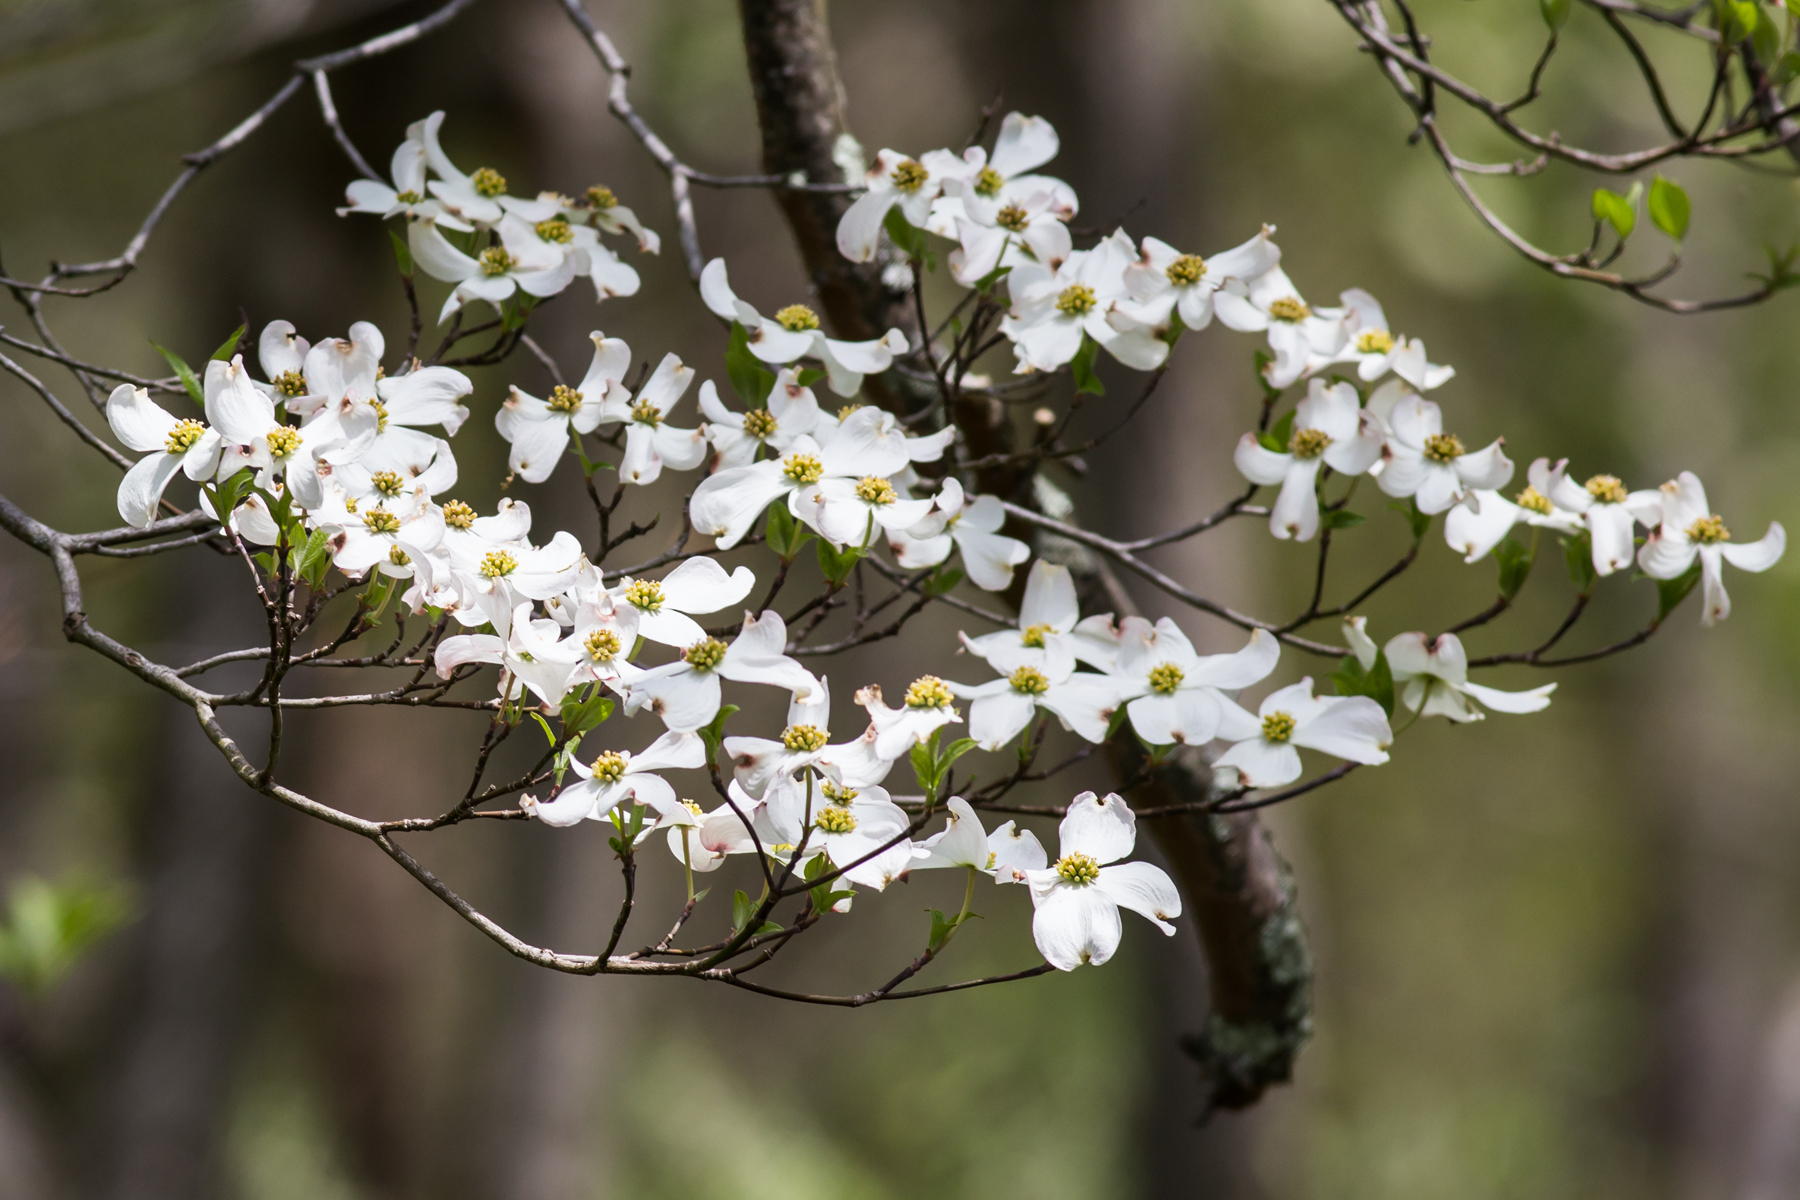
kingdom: Plantae
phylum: Tracheophyta
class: Magnoliopsida
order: Cornales
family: Cornaceae
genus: Cornus
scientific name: Cornus florida
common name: Flowering dogwood
